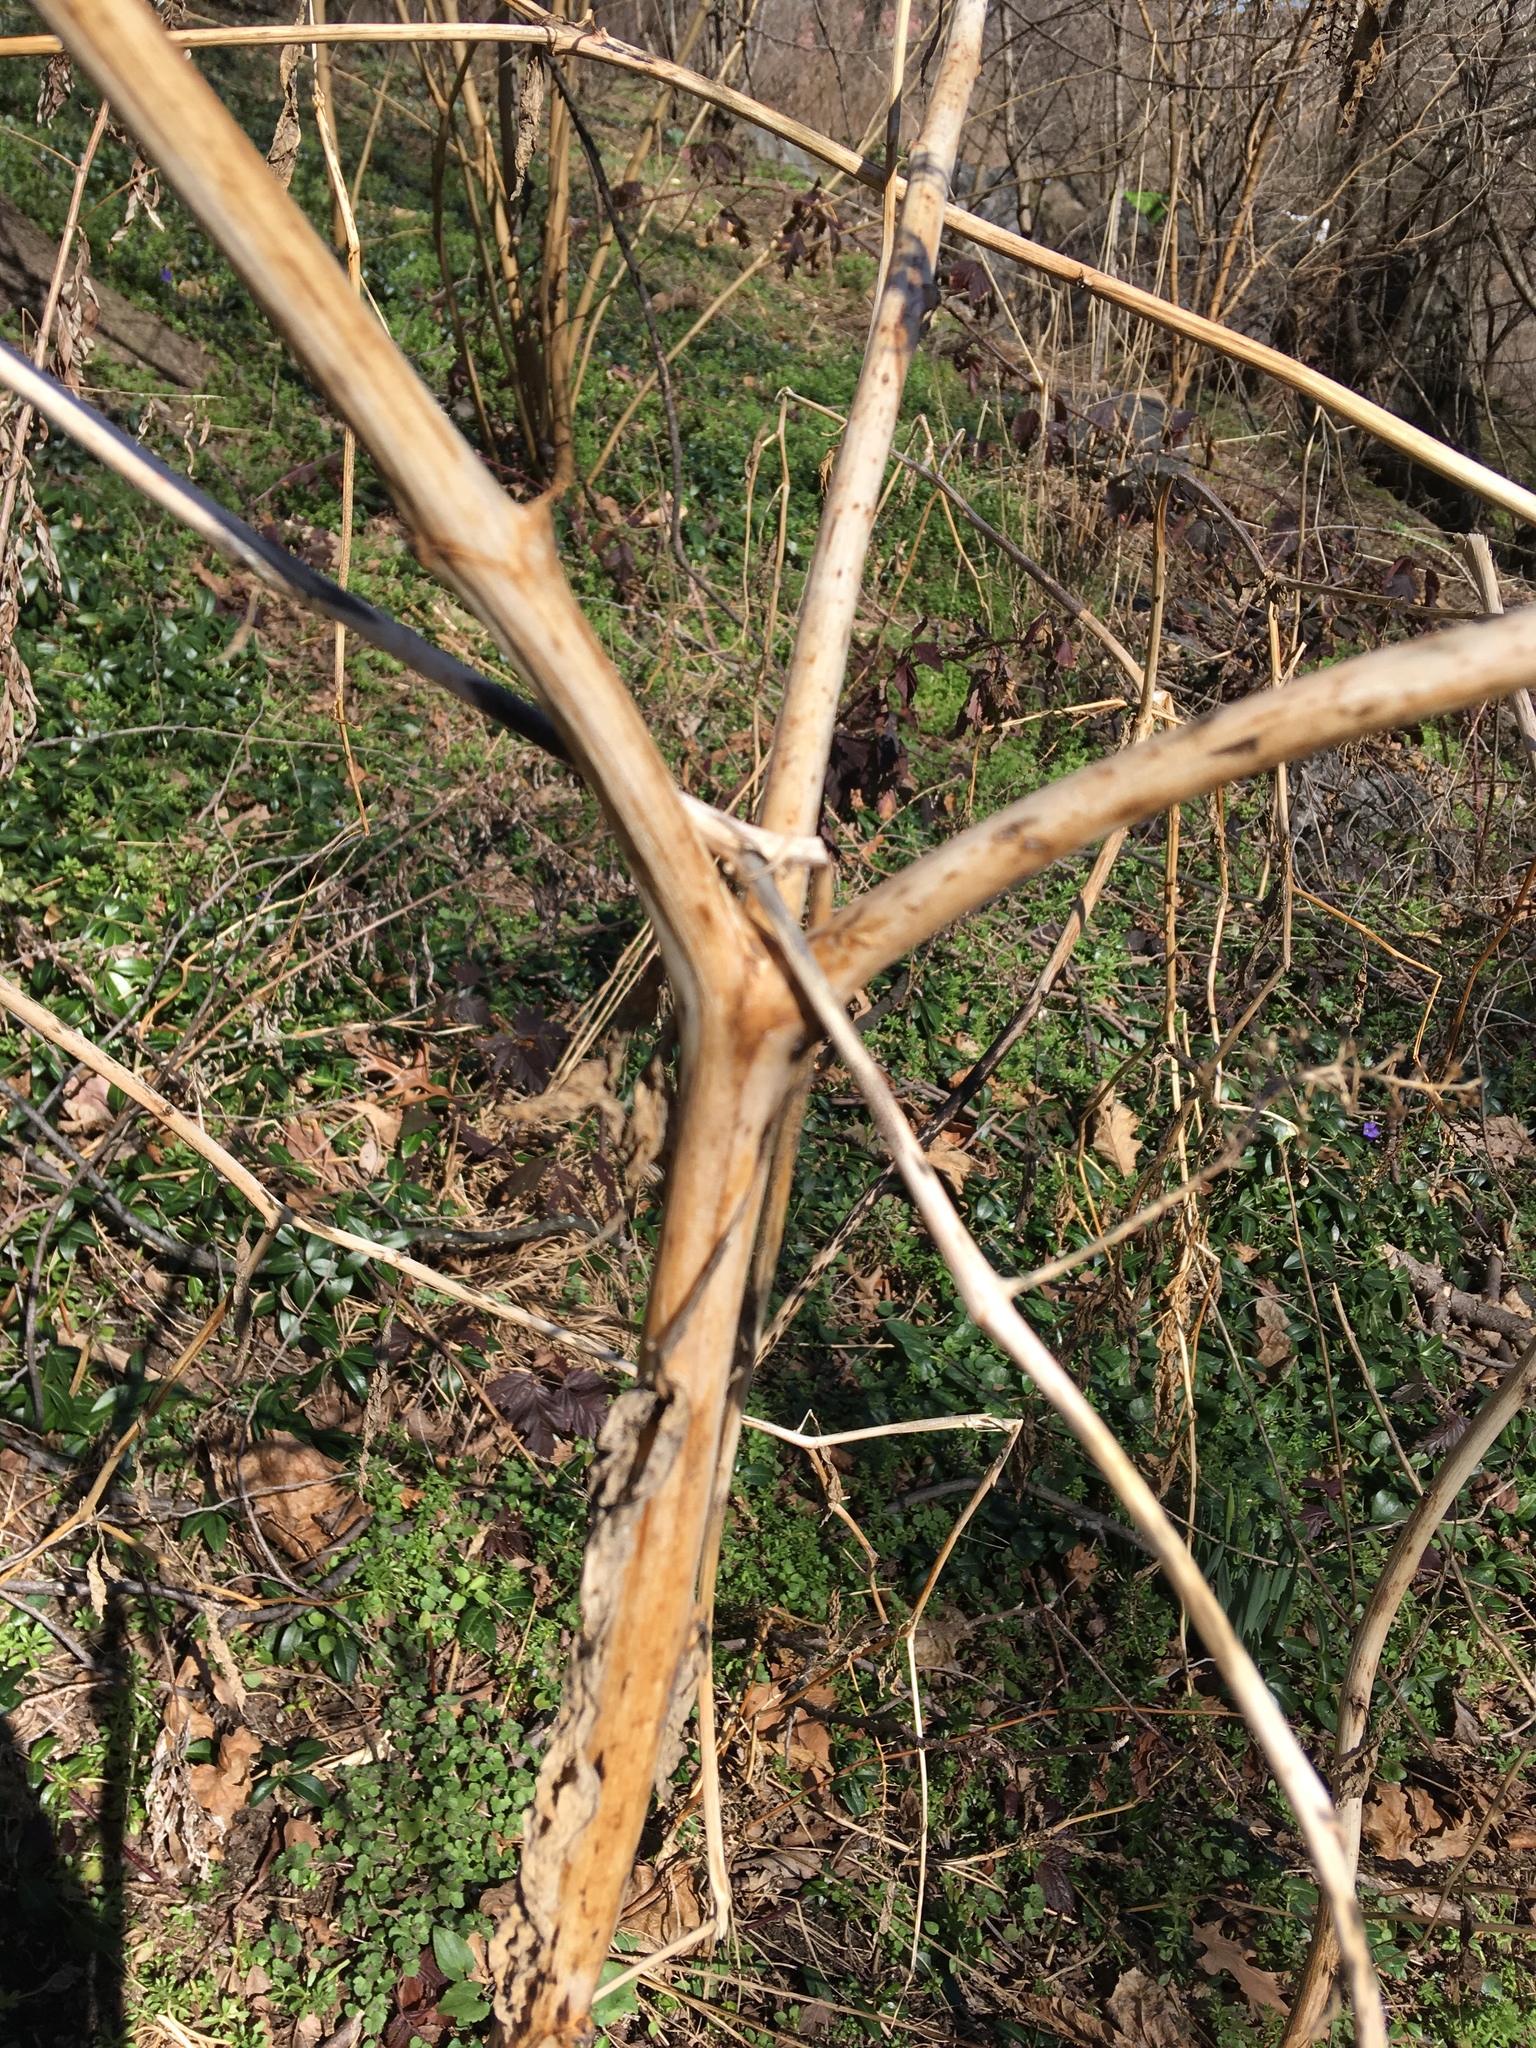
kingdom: Plantae
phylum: Tracheophyta
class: Magnoliopsida
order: Caryophyllales
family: Phytolaccaceae
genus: Phytolacca
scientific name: Phytolacca americana
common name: American pokeweed
